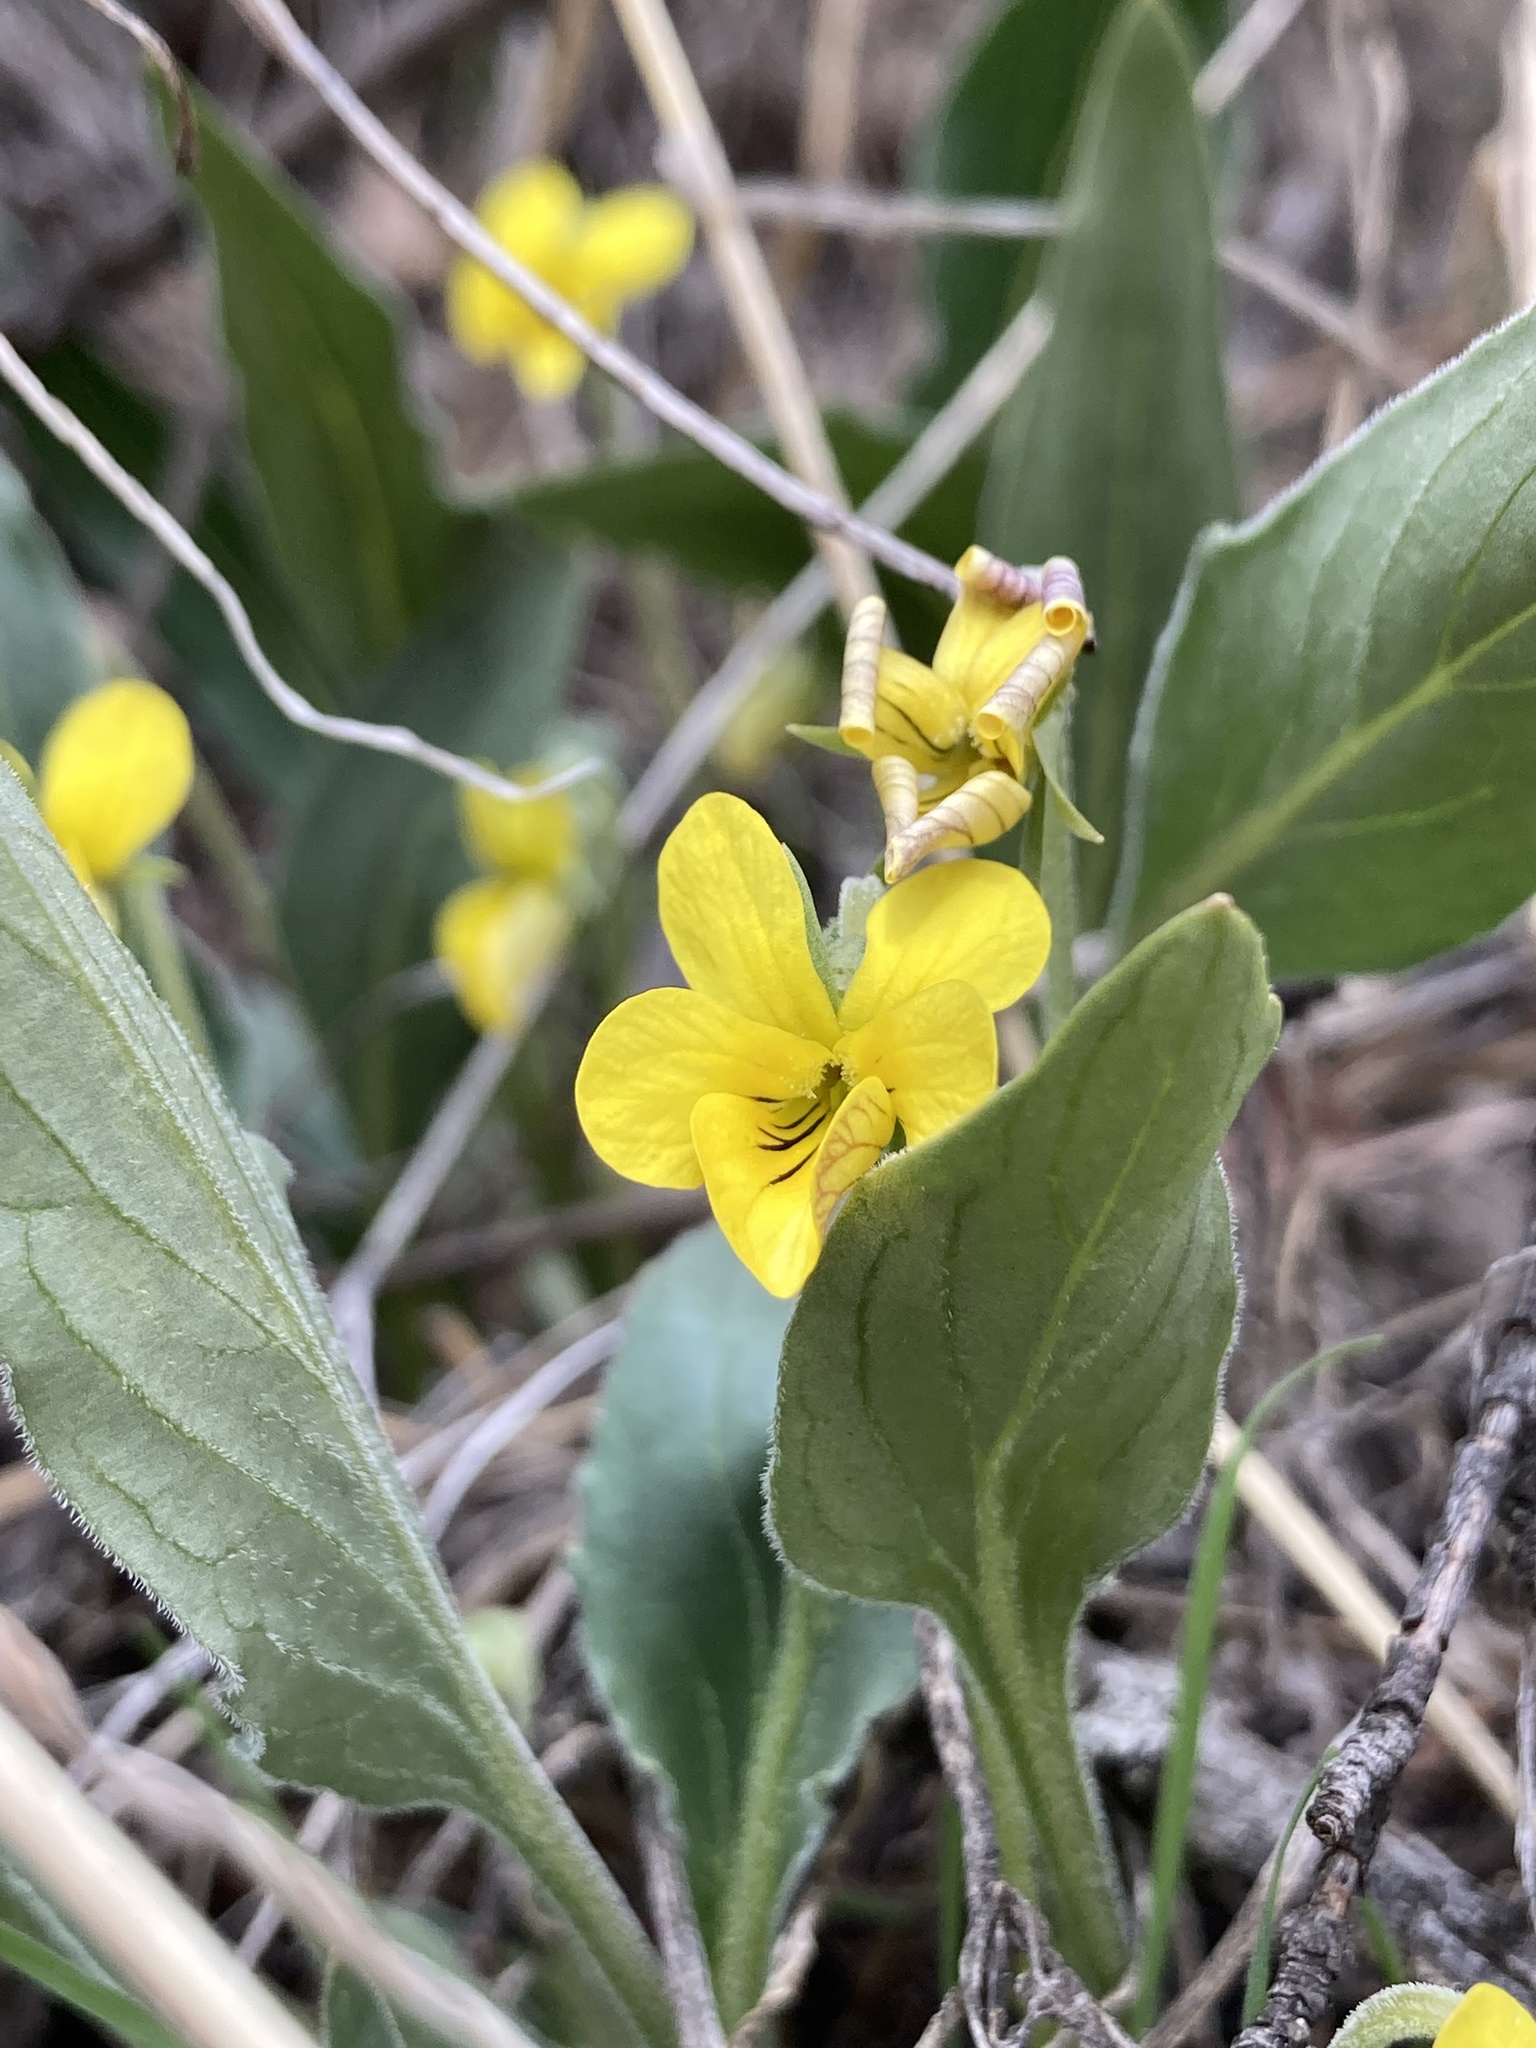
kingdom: Plantae
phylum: Tracheophyta
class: Magnoliopsida
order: Malpighiales
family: Violaceae
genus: Viola
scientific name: Viola nuttallii
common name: Yellow prairie violet
